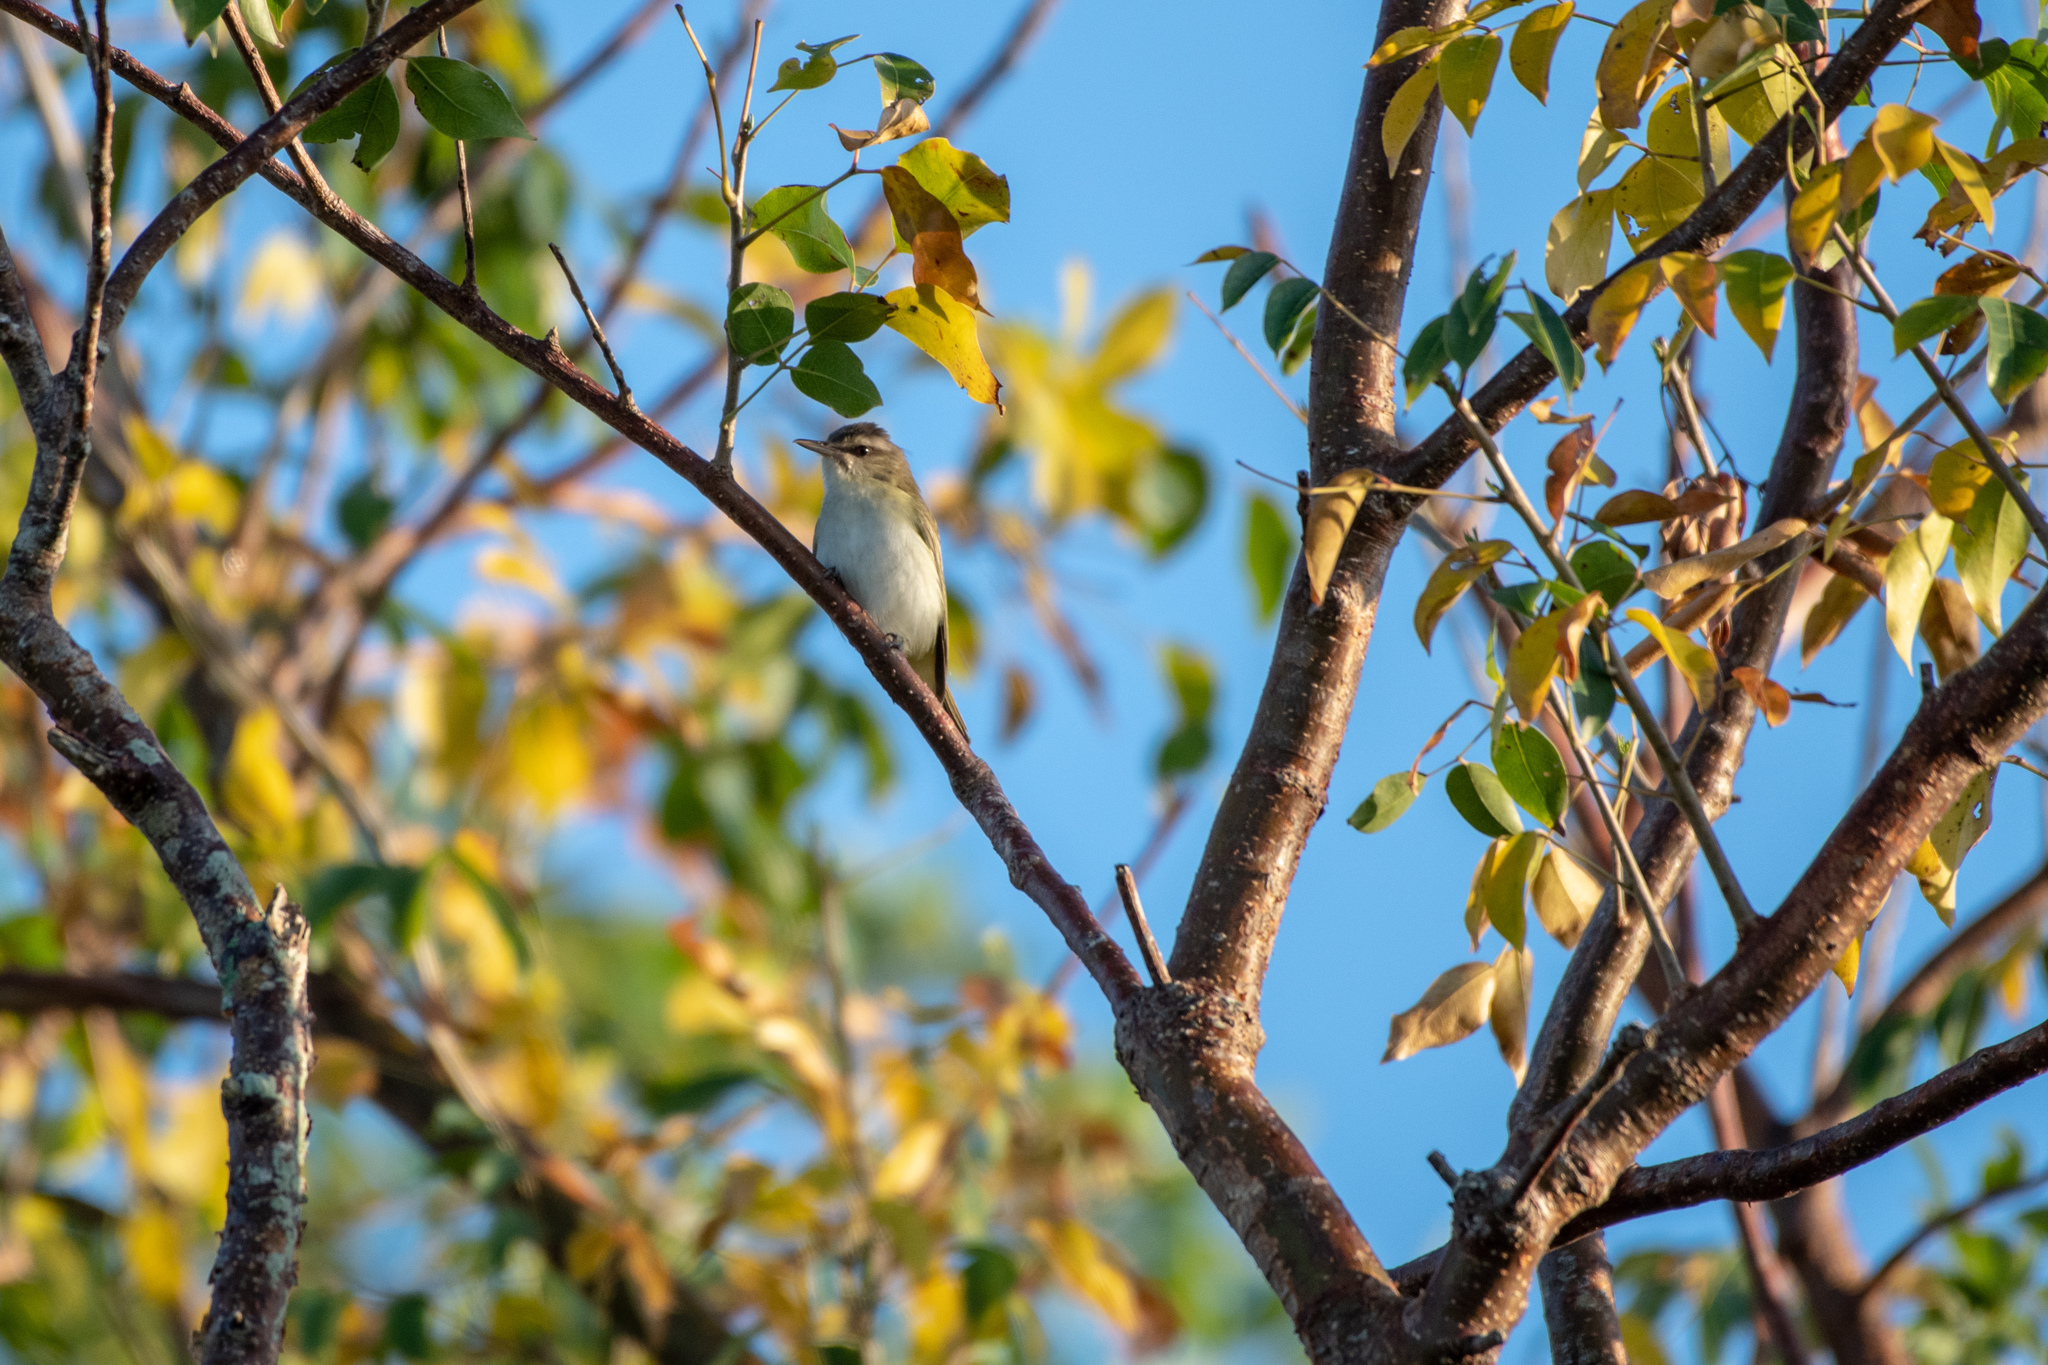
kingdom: Animalia
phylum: Chordata
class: Aves
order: Passeriformes
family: Vireonidae
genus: Vireo
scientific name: Vireo altiloquus
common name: Black-whiskered vireo
